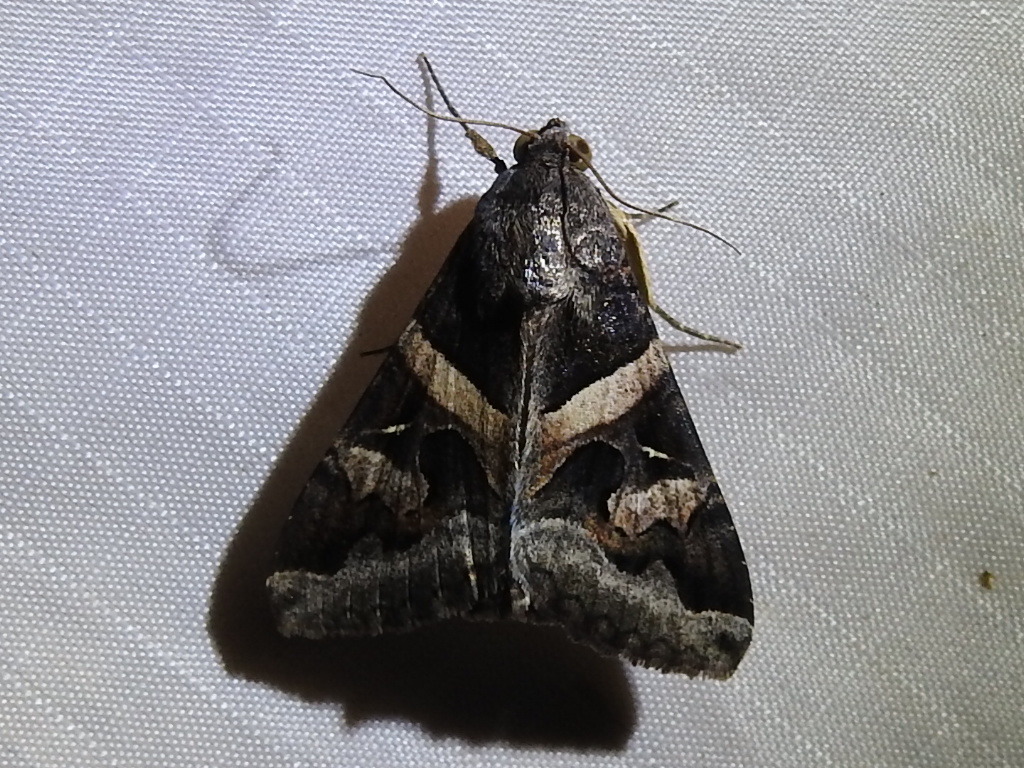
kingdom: Animalia
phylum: Arthropoda
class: Insecta
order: Lepidoptera
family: Erebidae
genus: Melipotis
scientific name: Melipotis indomita
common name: Moth
